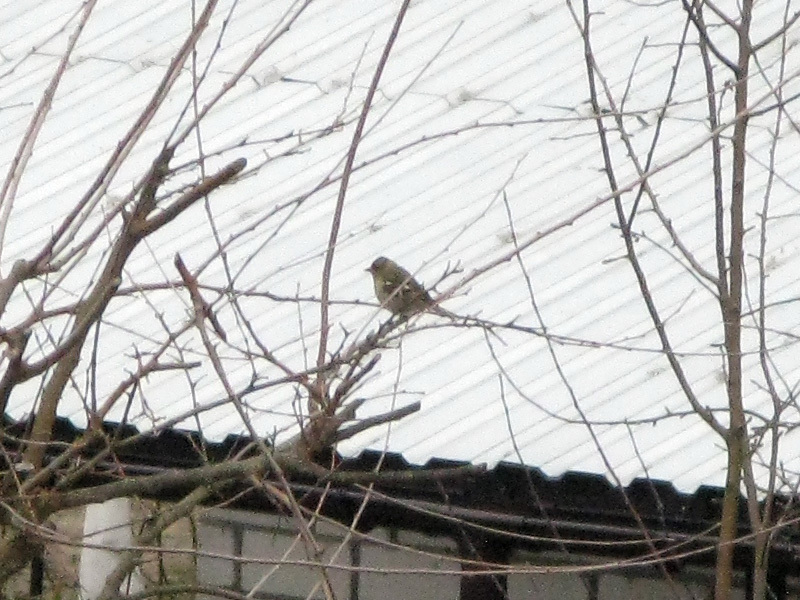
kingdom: Animalia
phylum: Chordata
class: Aves
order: Passeriformes
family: Fringillidae
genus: Fringilla
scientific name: Fringilla coelebs
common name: Common chaffinch
